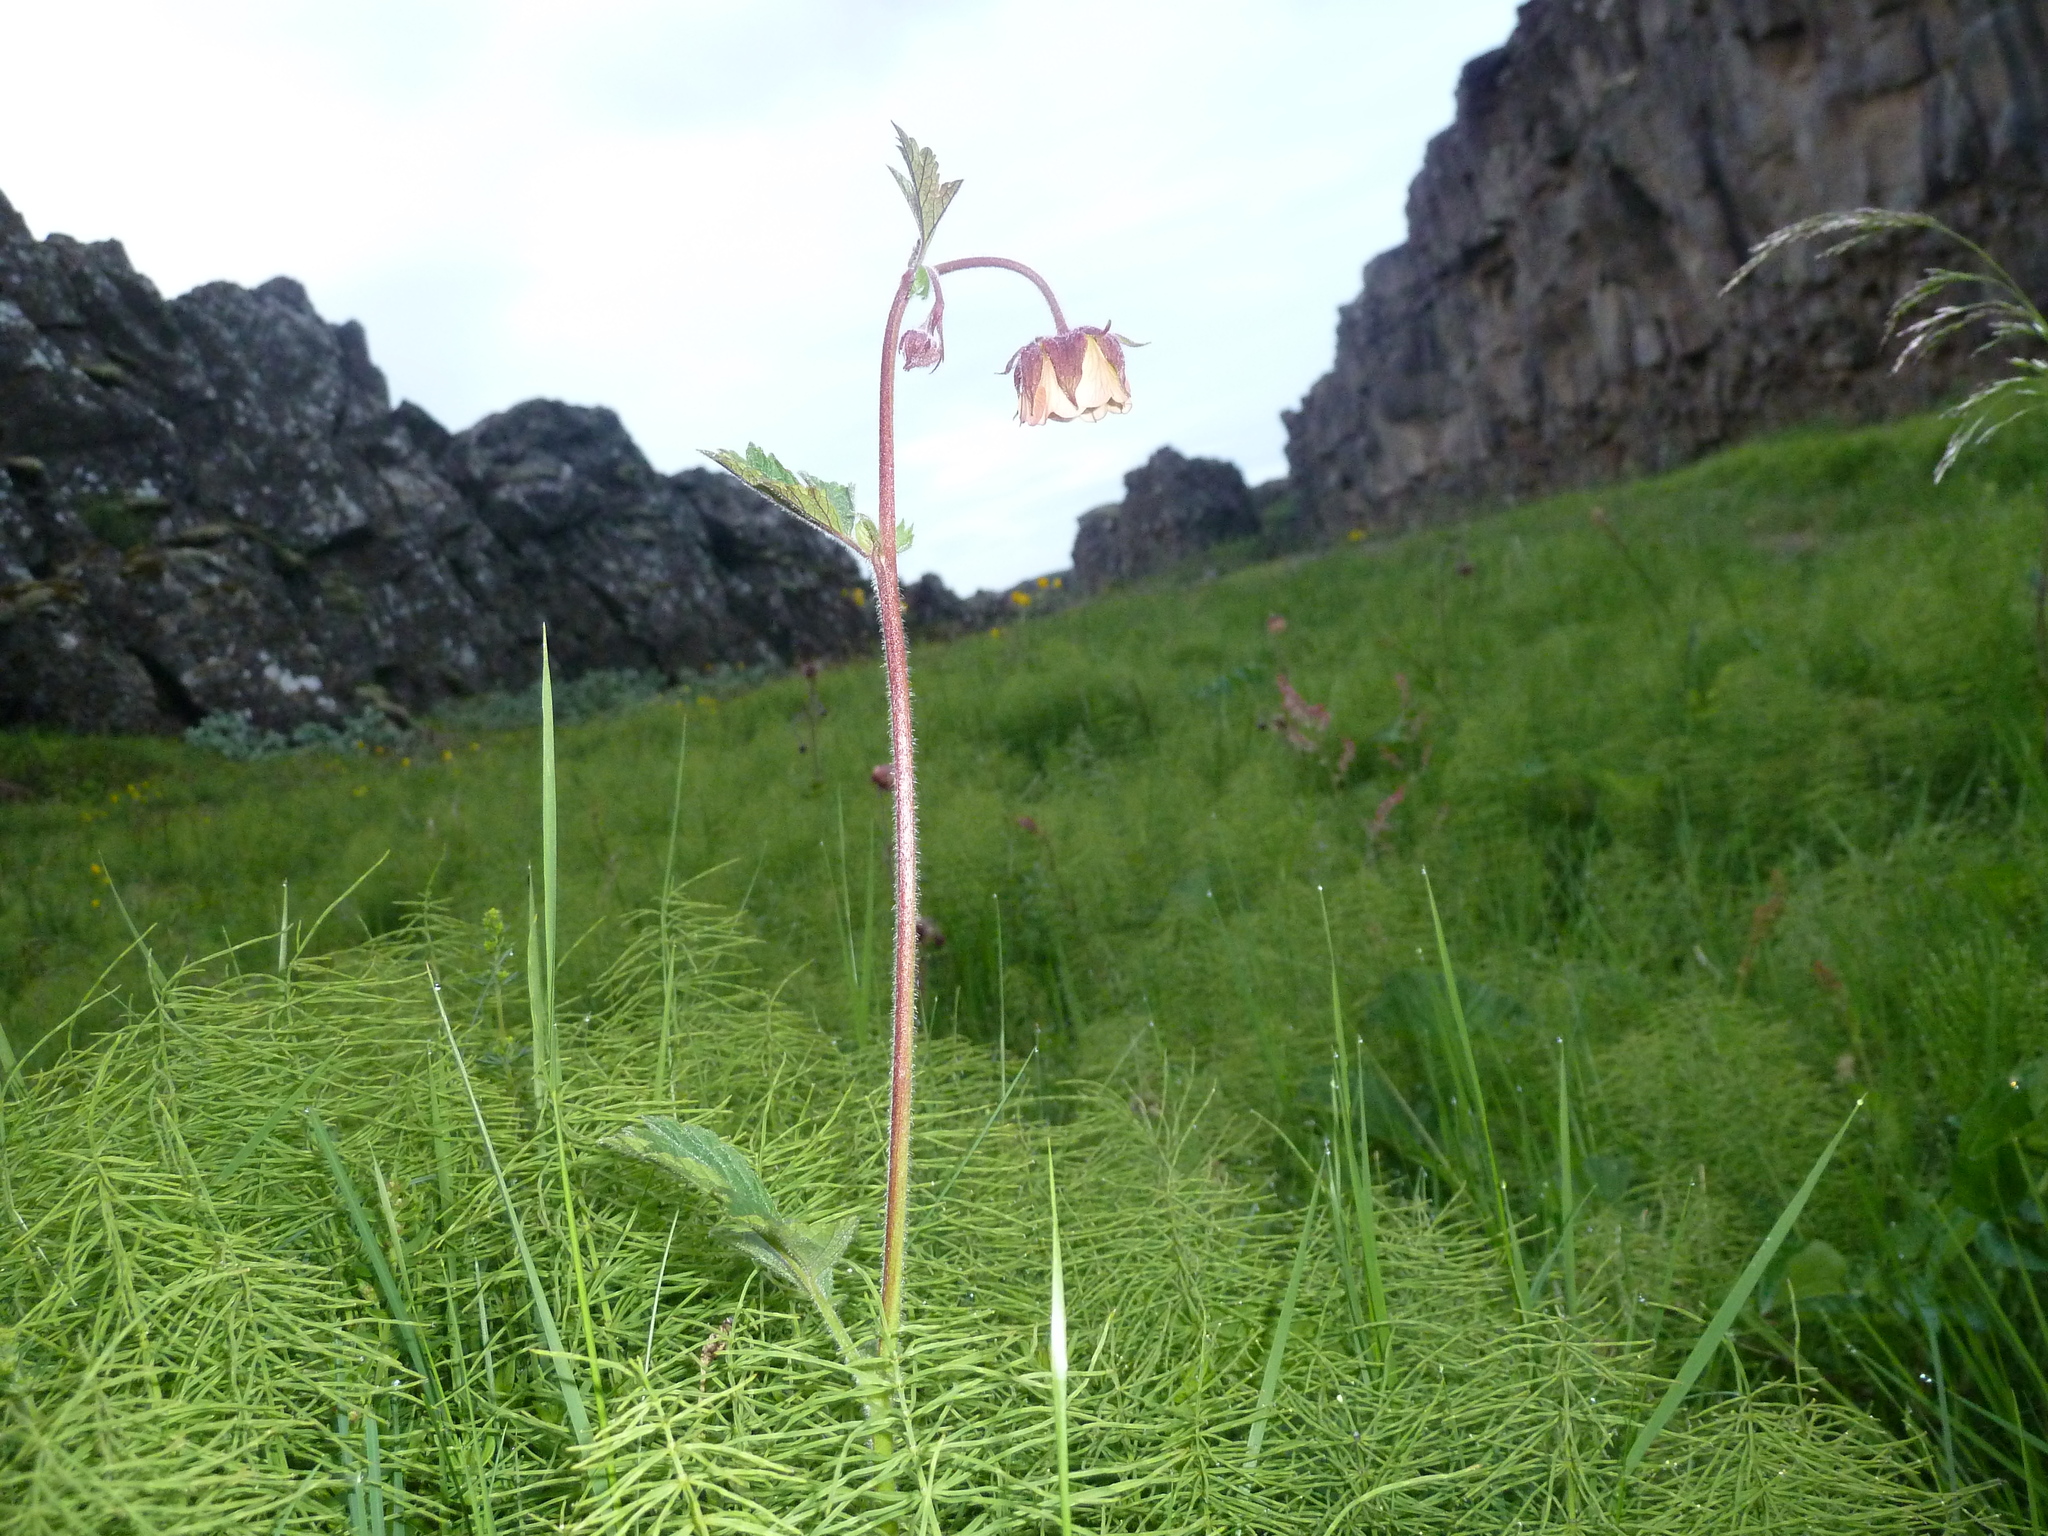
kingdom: Plantae
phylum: Tracheophyta
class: Magnoliopsida
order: Rosales
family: Rosaceae
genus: Geum
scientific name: Geum rivale
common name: Water avens
